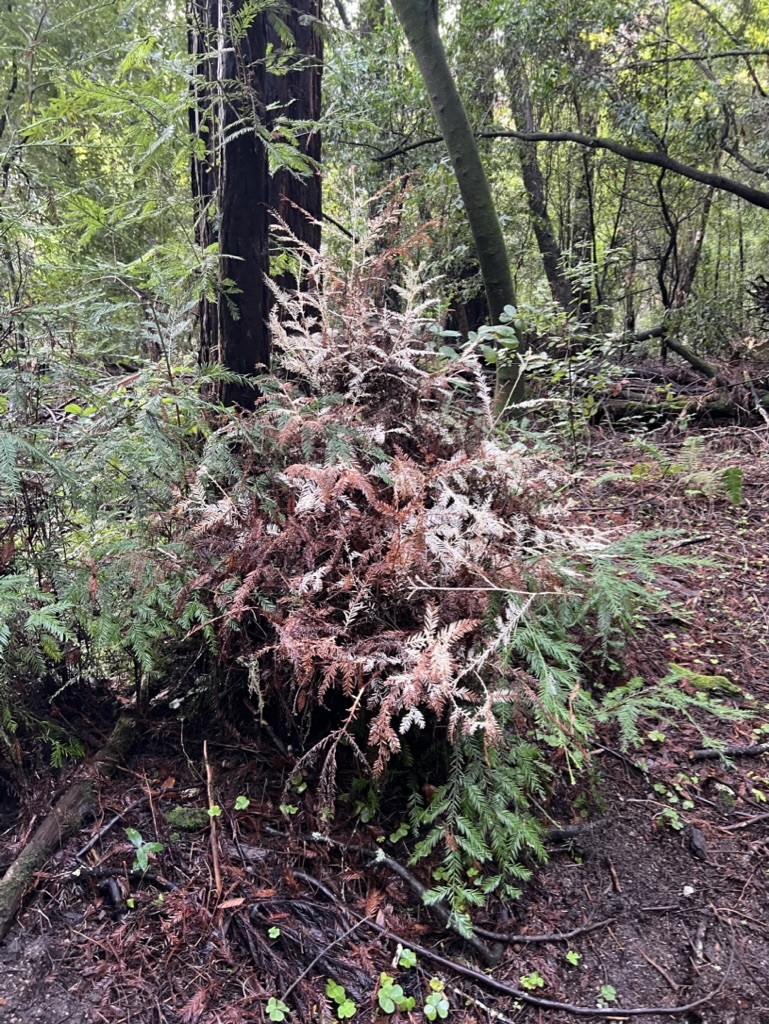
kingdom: Plantae
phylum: Tracheophyta
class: Pinopsida
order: Pinales
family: Cupressaceae
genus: Sequoia
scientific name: Sequoia sempervirens
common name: Coast redwood
